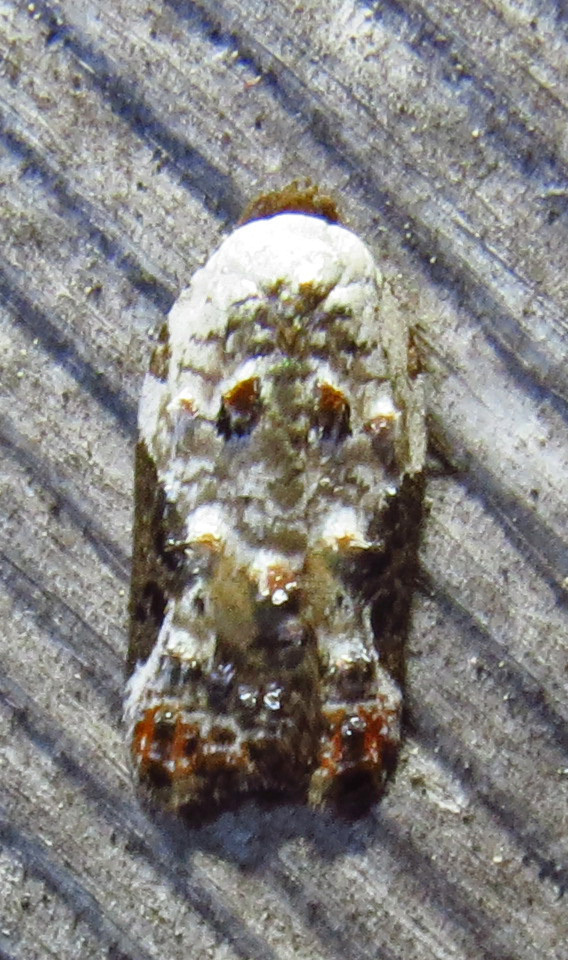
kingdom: Animalia
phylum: Arthropoda
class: Insecta
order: Lepidoptera
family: Tortricidae
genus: Acleris
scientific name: Acleris nivisellana
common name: Snowy-shouldered acleris moth
